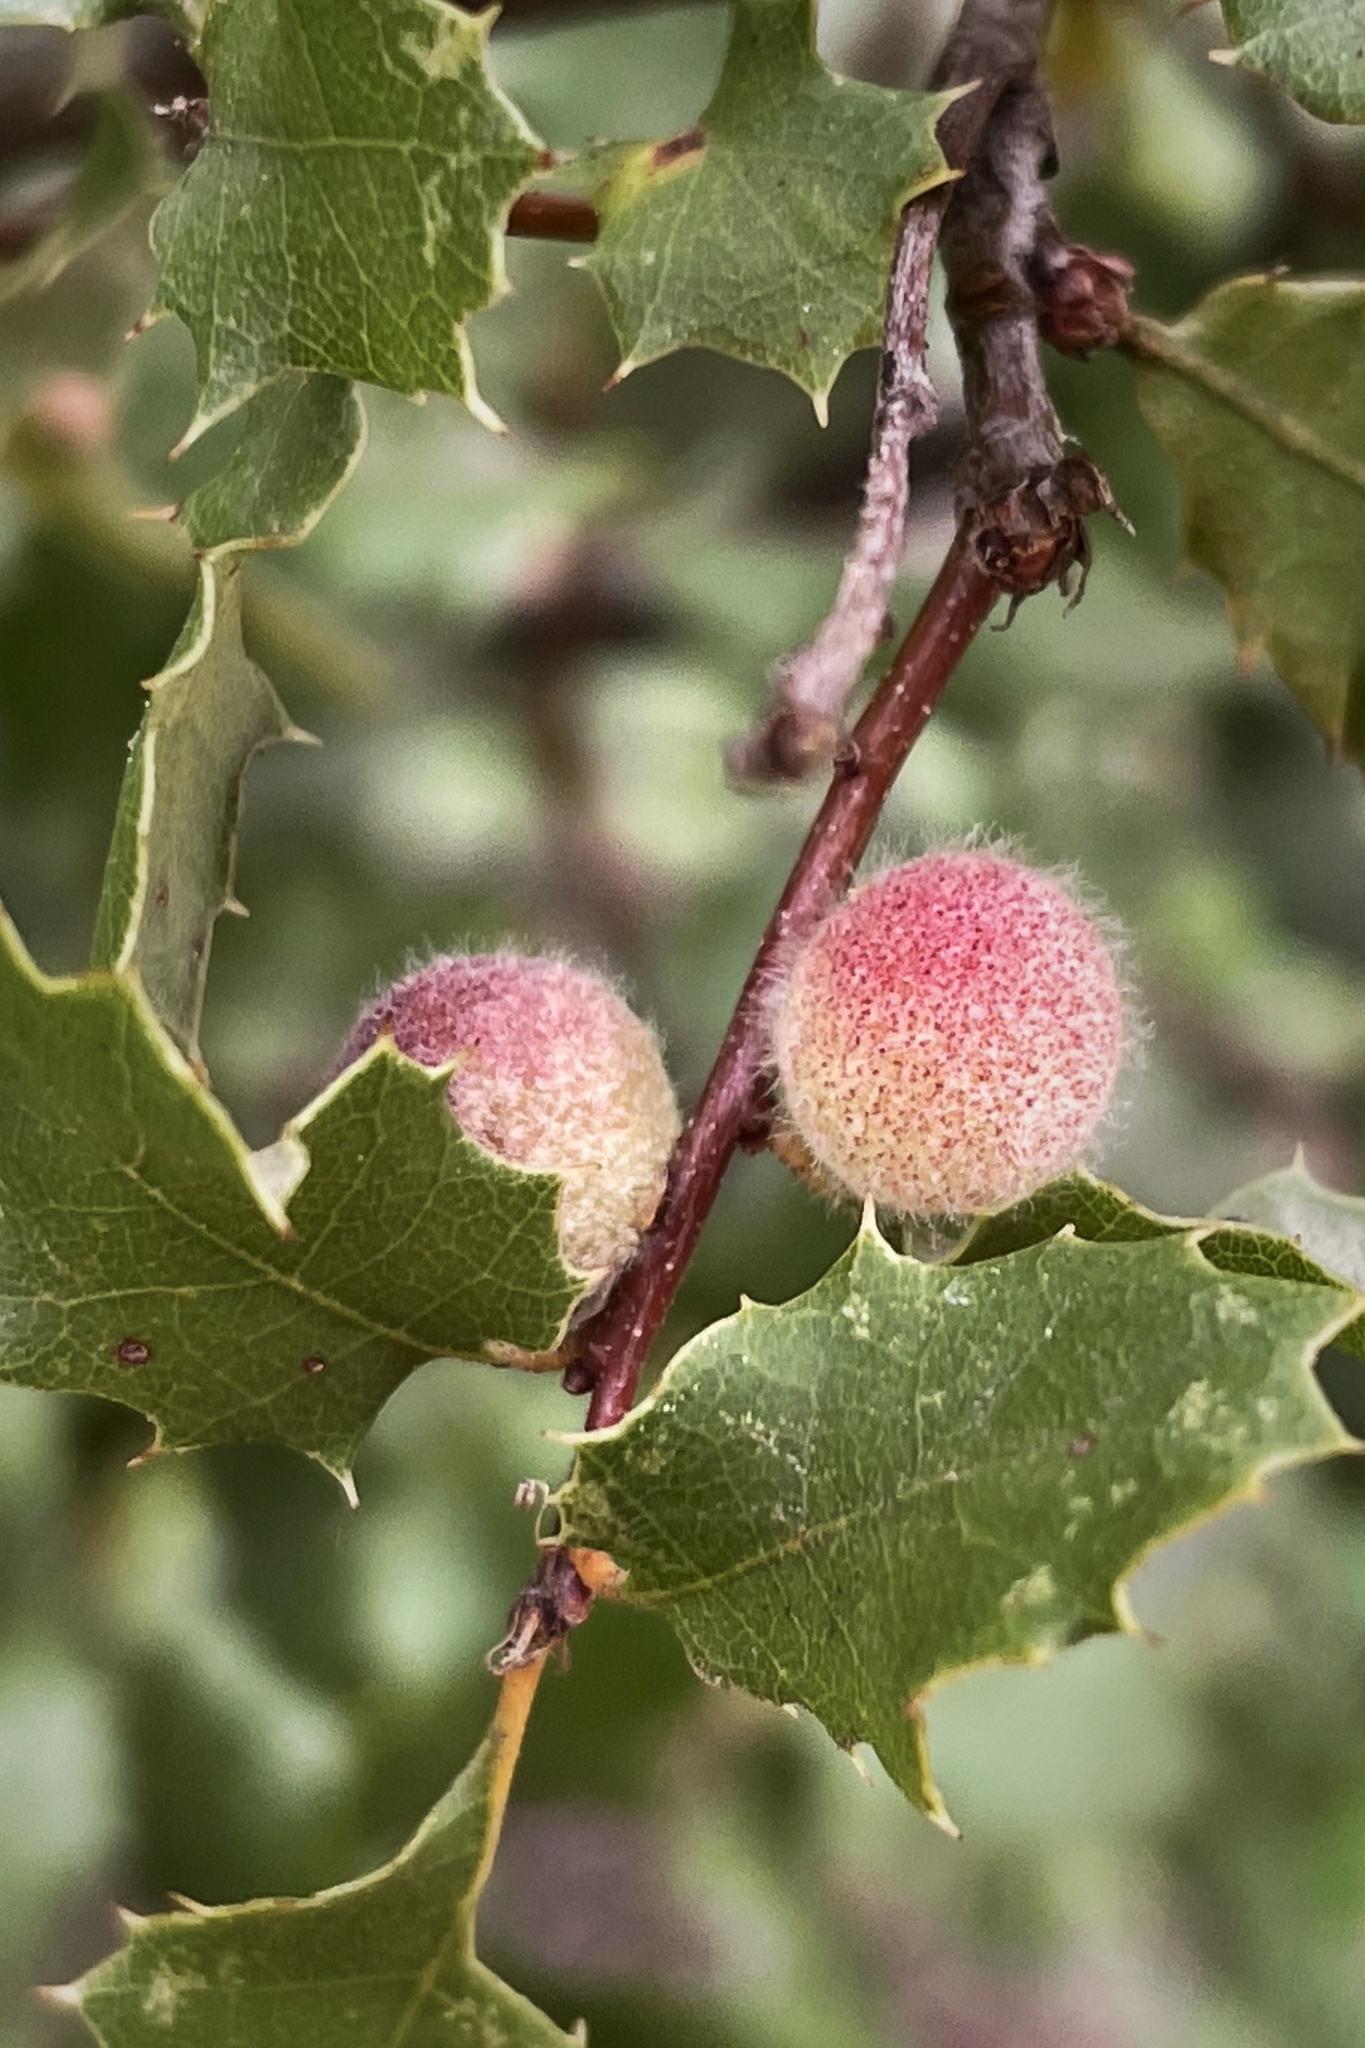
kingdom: Animalia
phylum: Arthropoda
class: Insecta
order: Hymenoptera
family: Cynipidae
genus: Burnettweldia
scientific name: Burnettweldia
